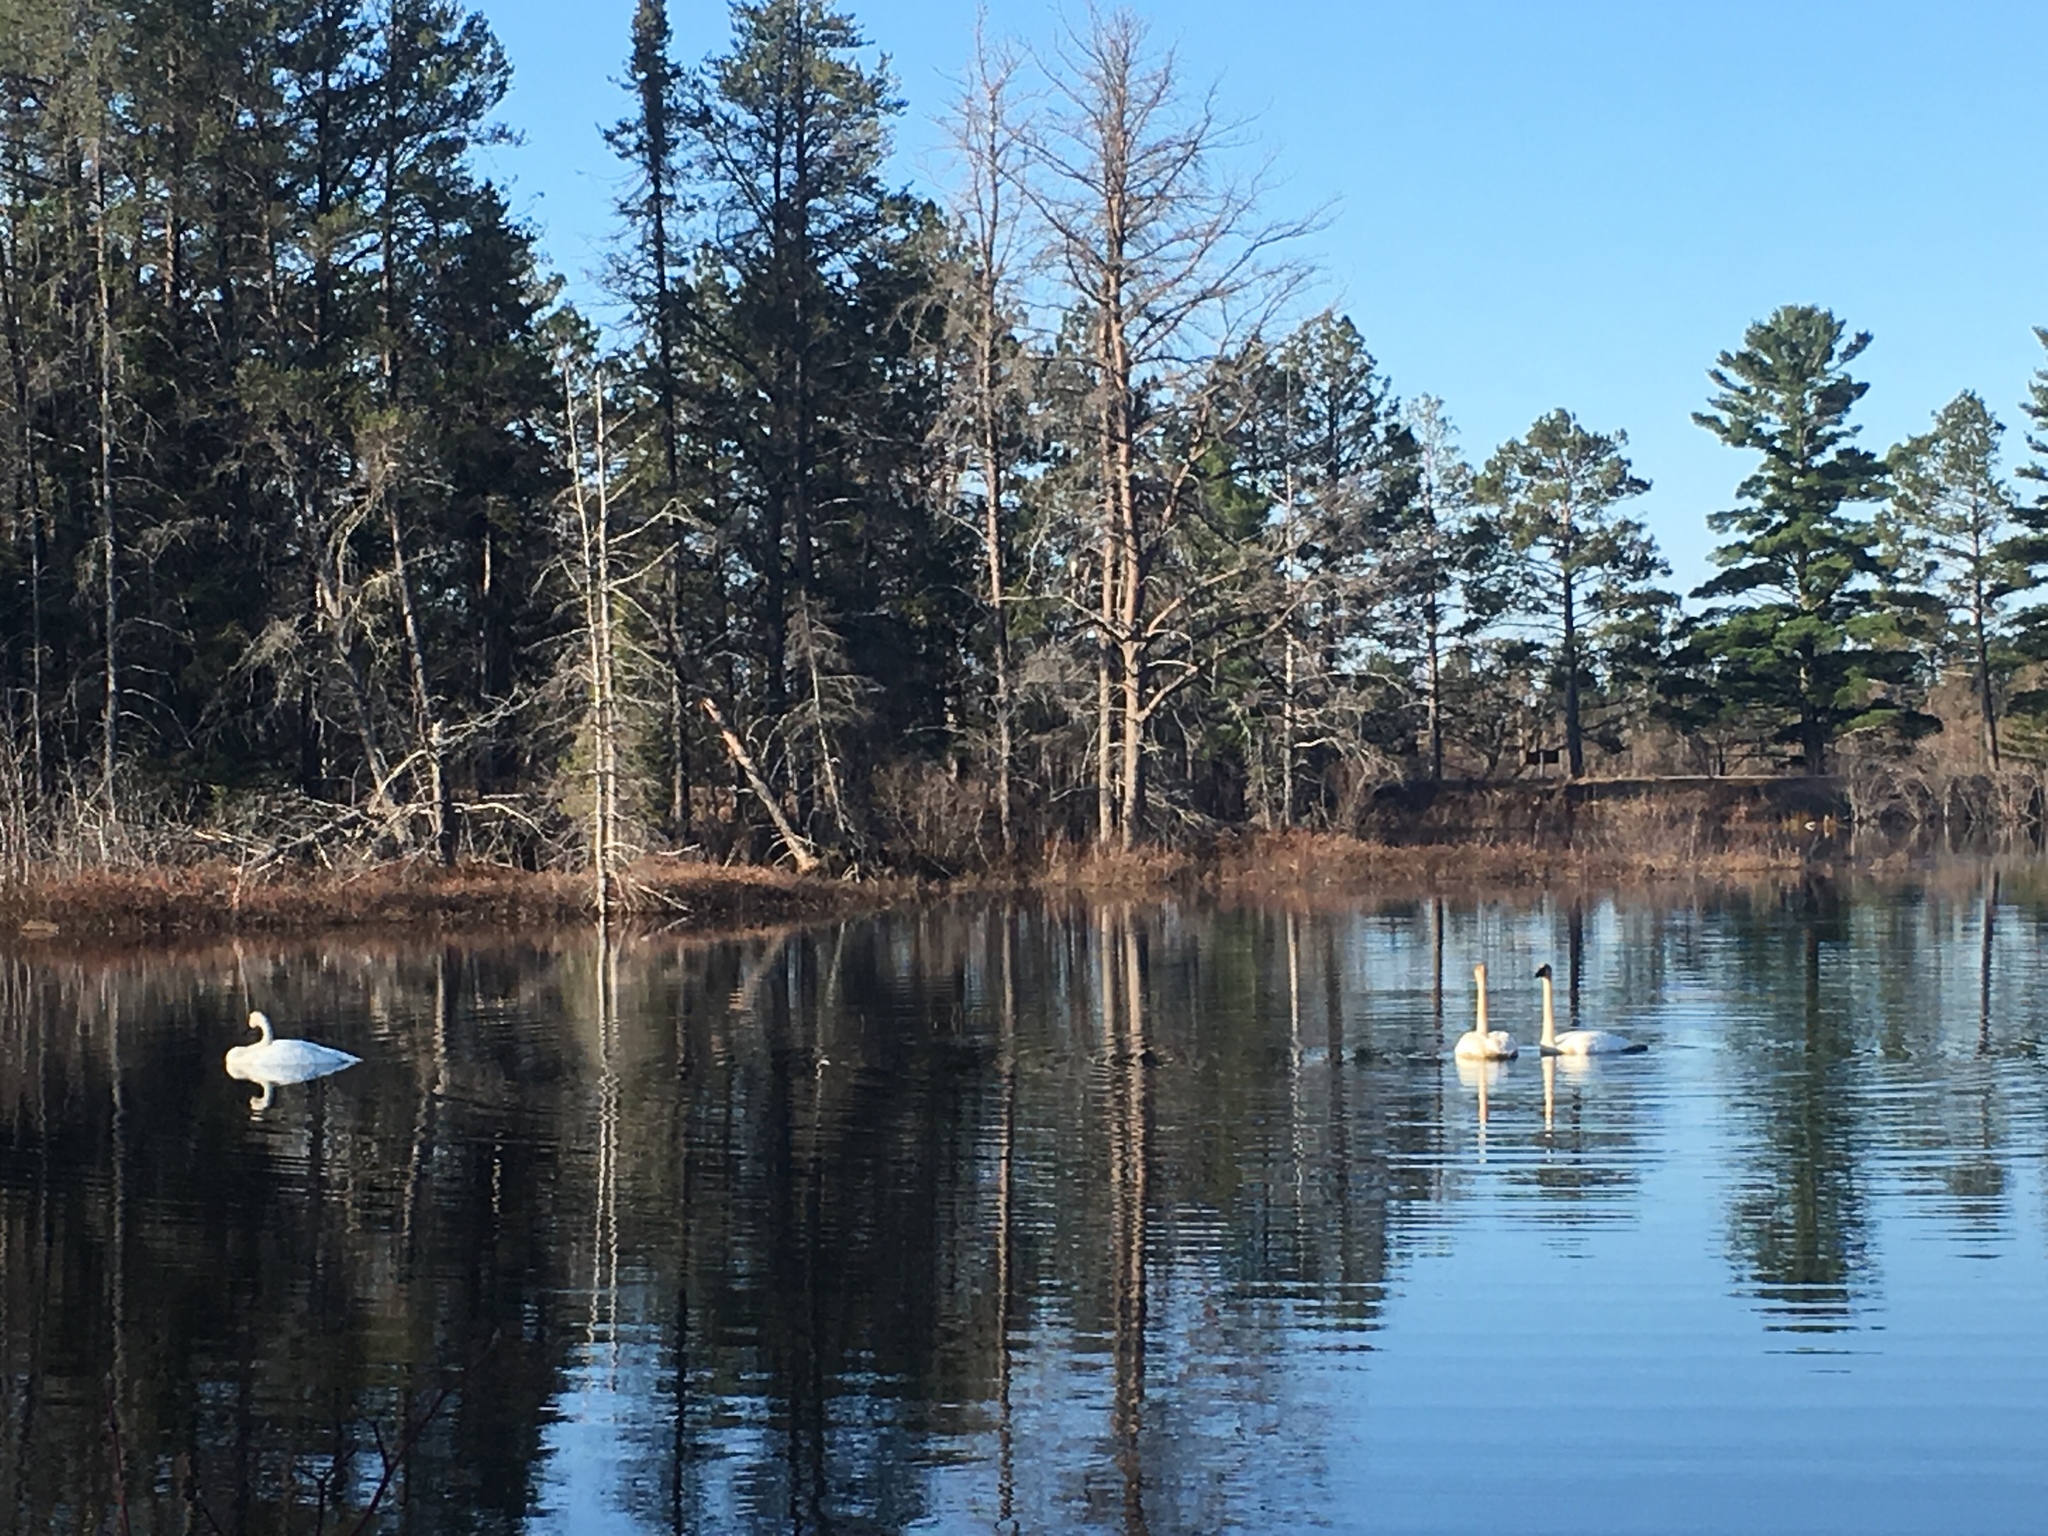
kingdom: Animalia
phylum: Chordata
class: Aves
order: Anseriformes
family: Anatidae
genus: Cygnus
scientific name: Cygnus buccinator
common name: Trumpeter swan
